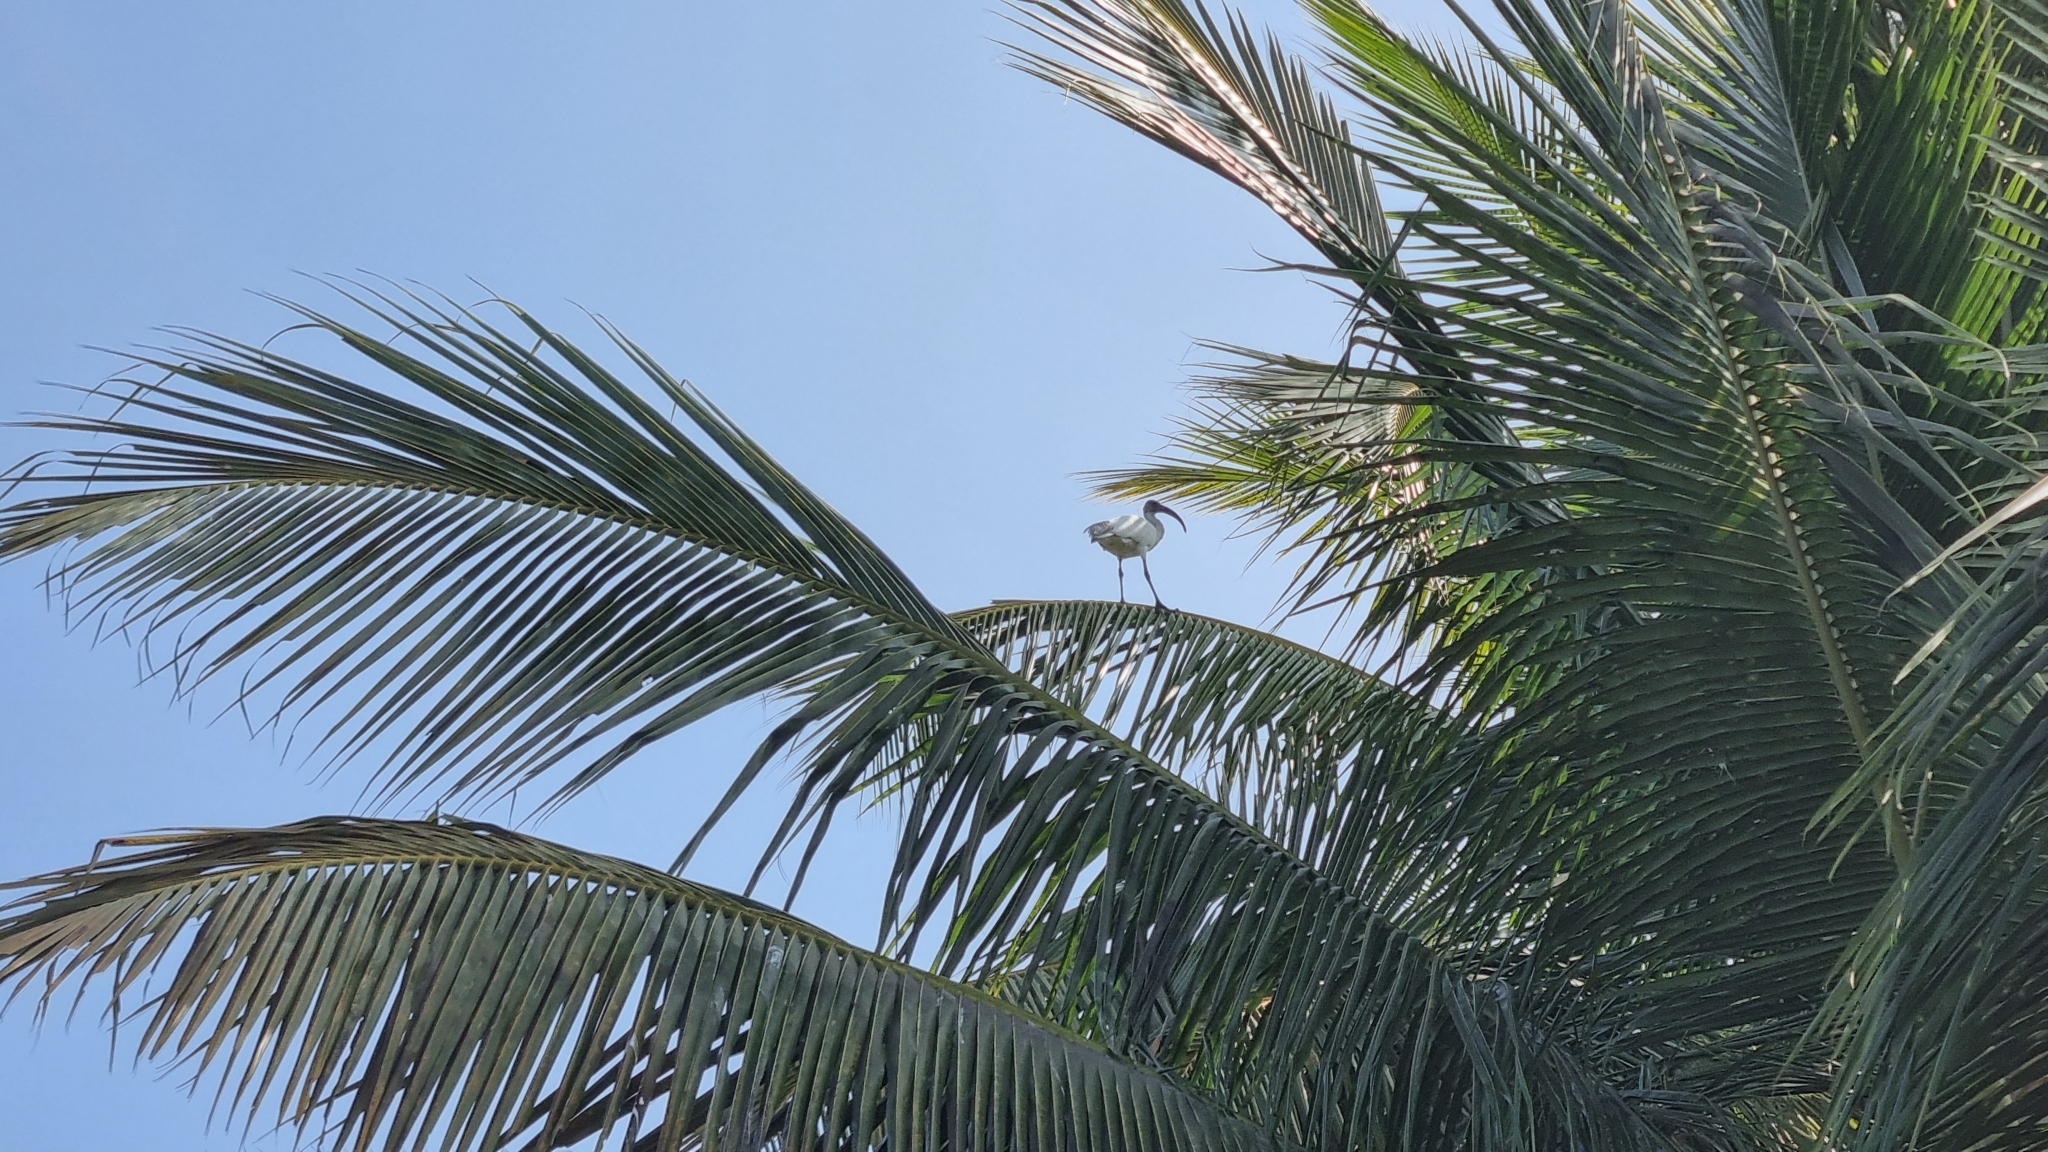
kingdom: Animalia
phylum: Chordata
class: Aves
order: Pelecaniformes
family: Threskiornithidae
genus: Threskiornis
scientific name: Threskiornis melanocephalus
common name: Black-headed ibis
